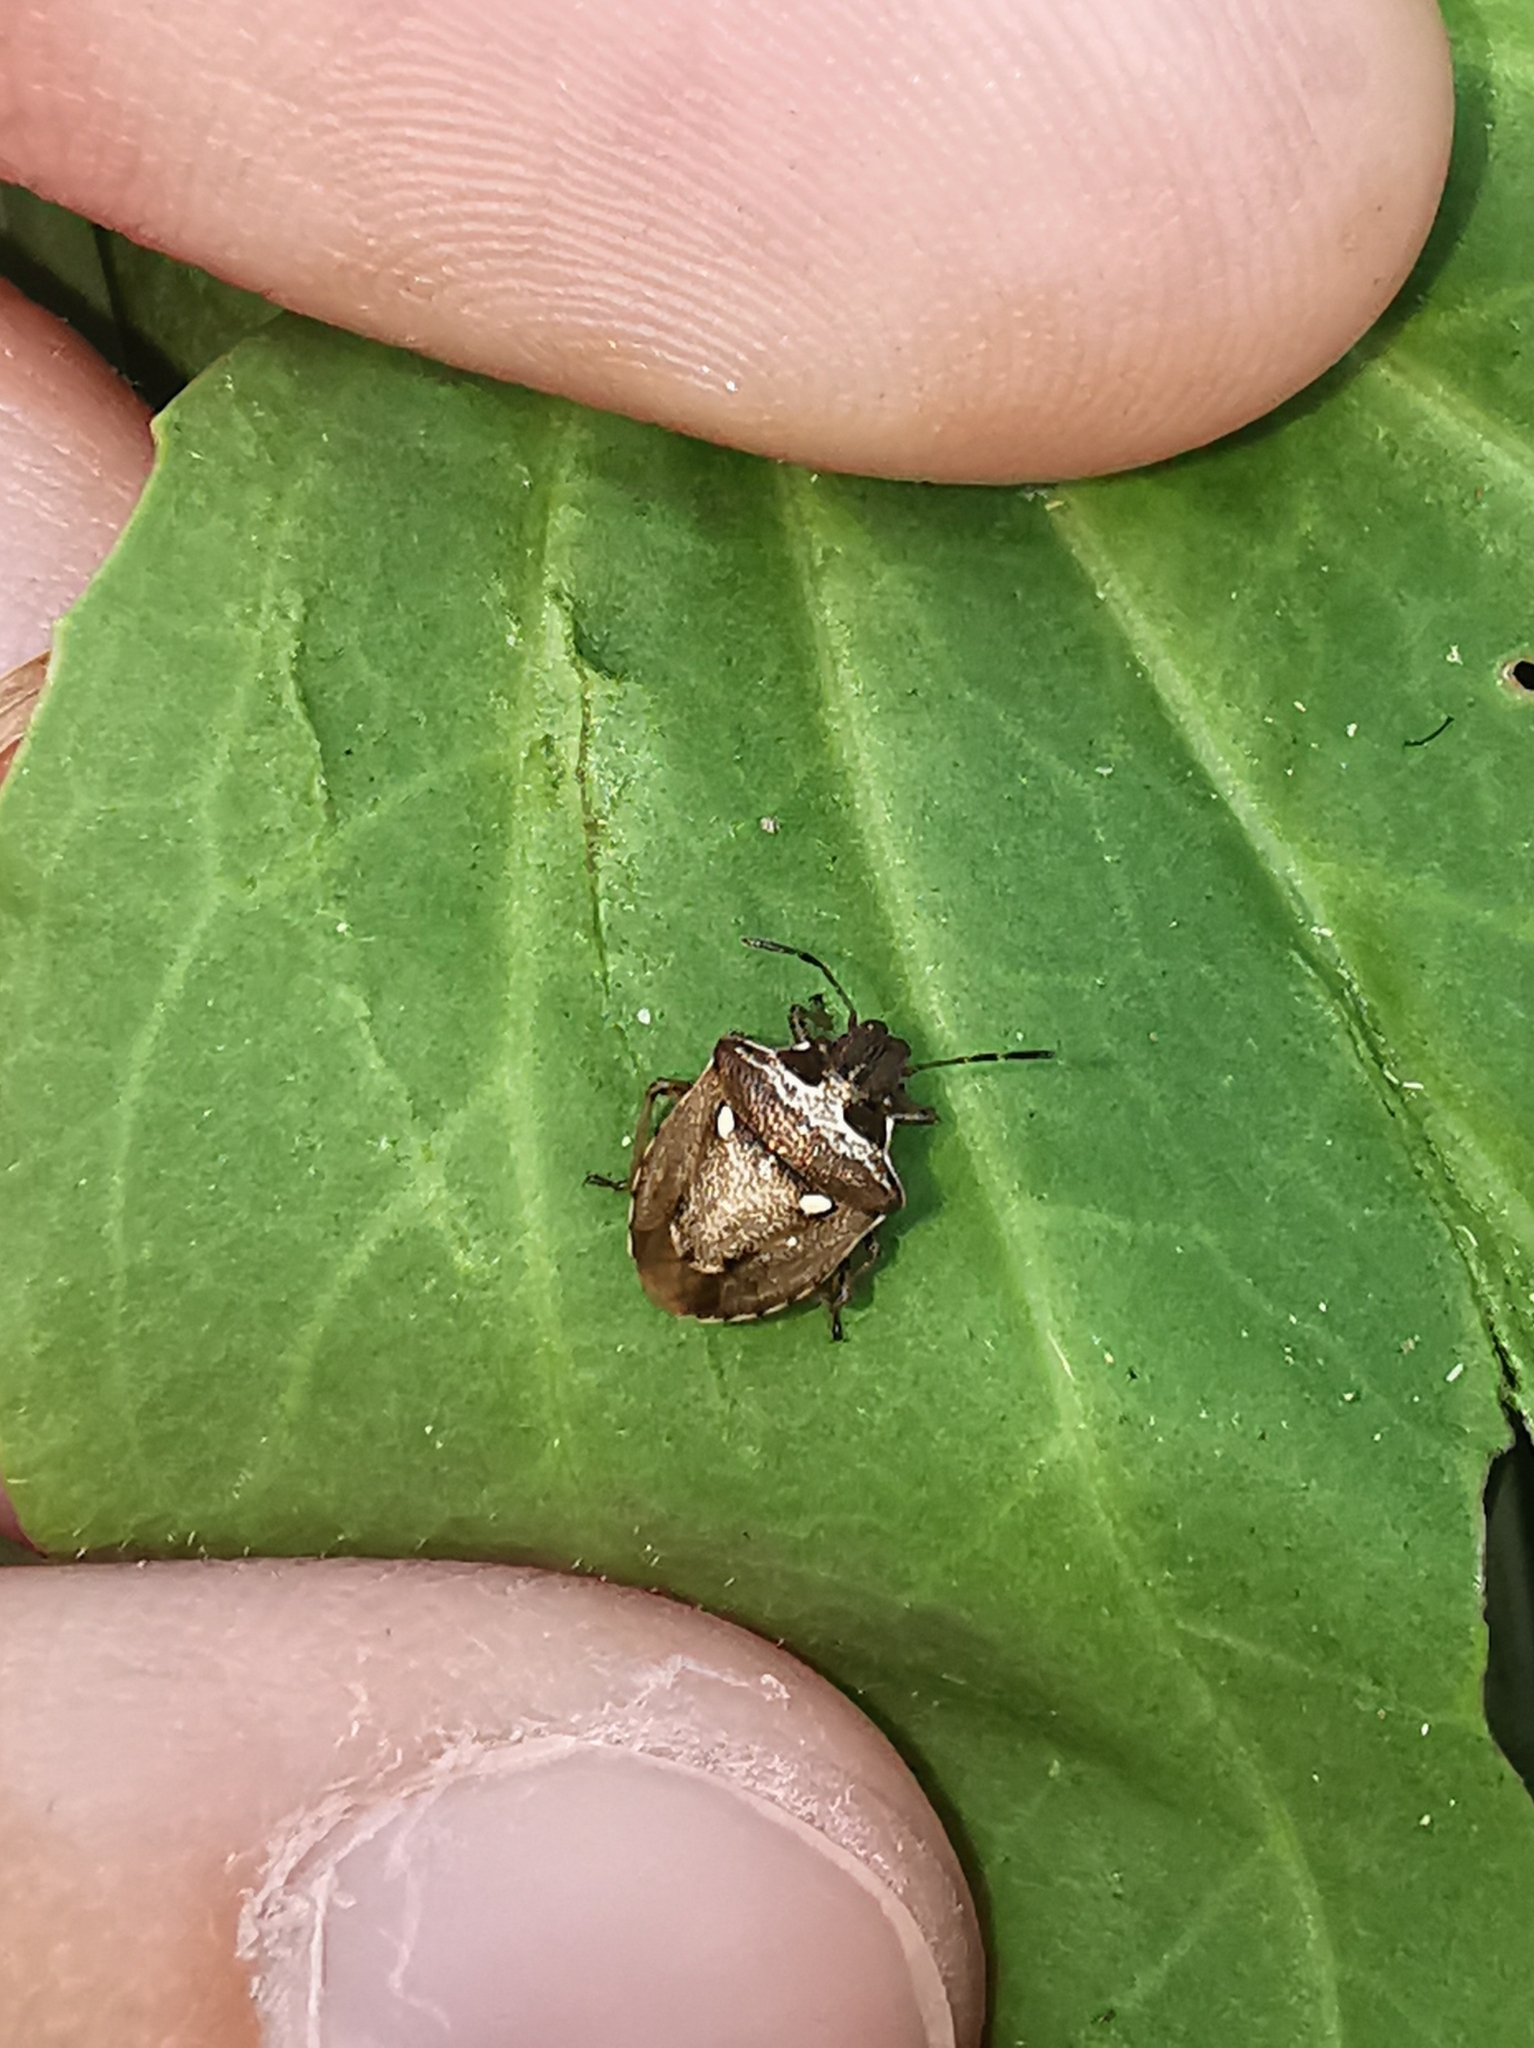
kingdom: Animalia
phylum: Arthropoda
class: Insecta
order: Hemiptera
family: Pentatomidae
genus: Eysarcoris
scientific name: Eysarcoris aeneus
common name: New forest shieldbug
